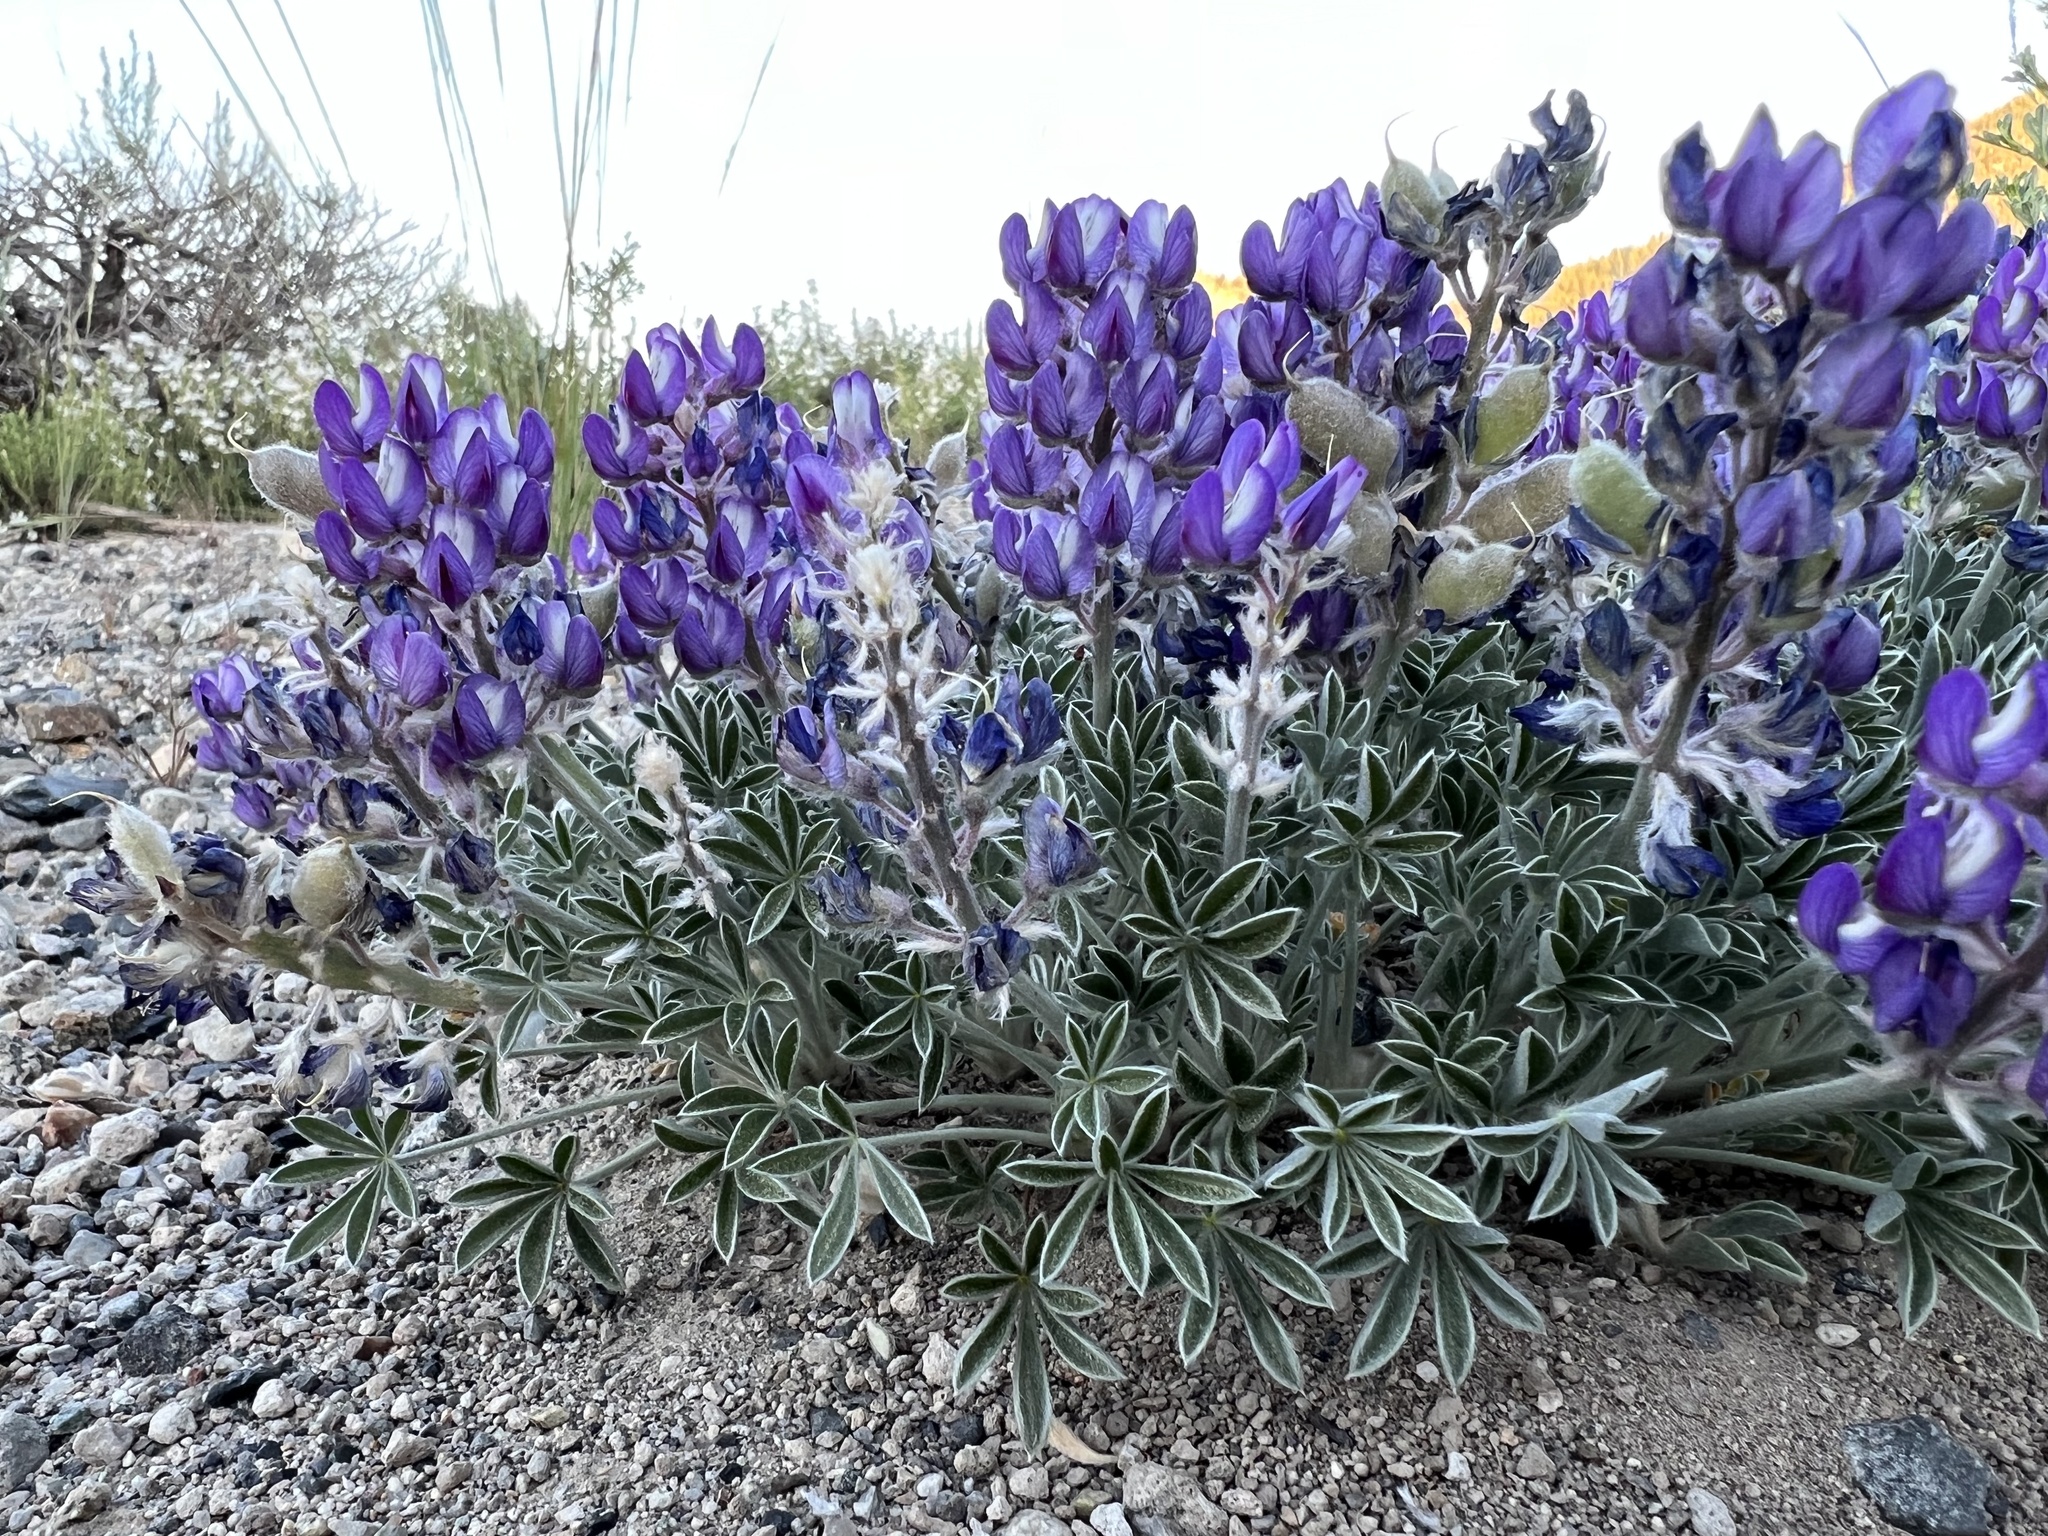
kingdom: Plantae
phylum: Tracheophyta
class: Magnoliopsida
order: Fabales
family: Fabaceae
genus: Lupinus
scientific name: Lupinus duranii
